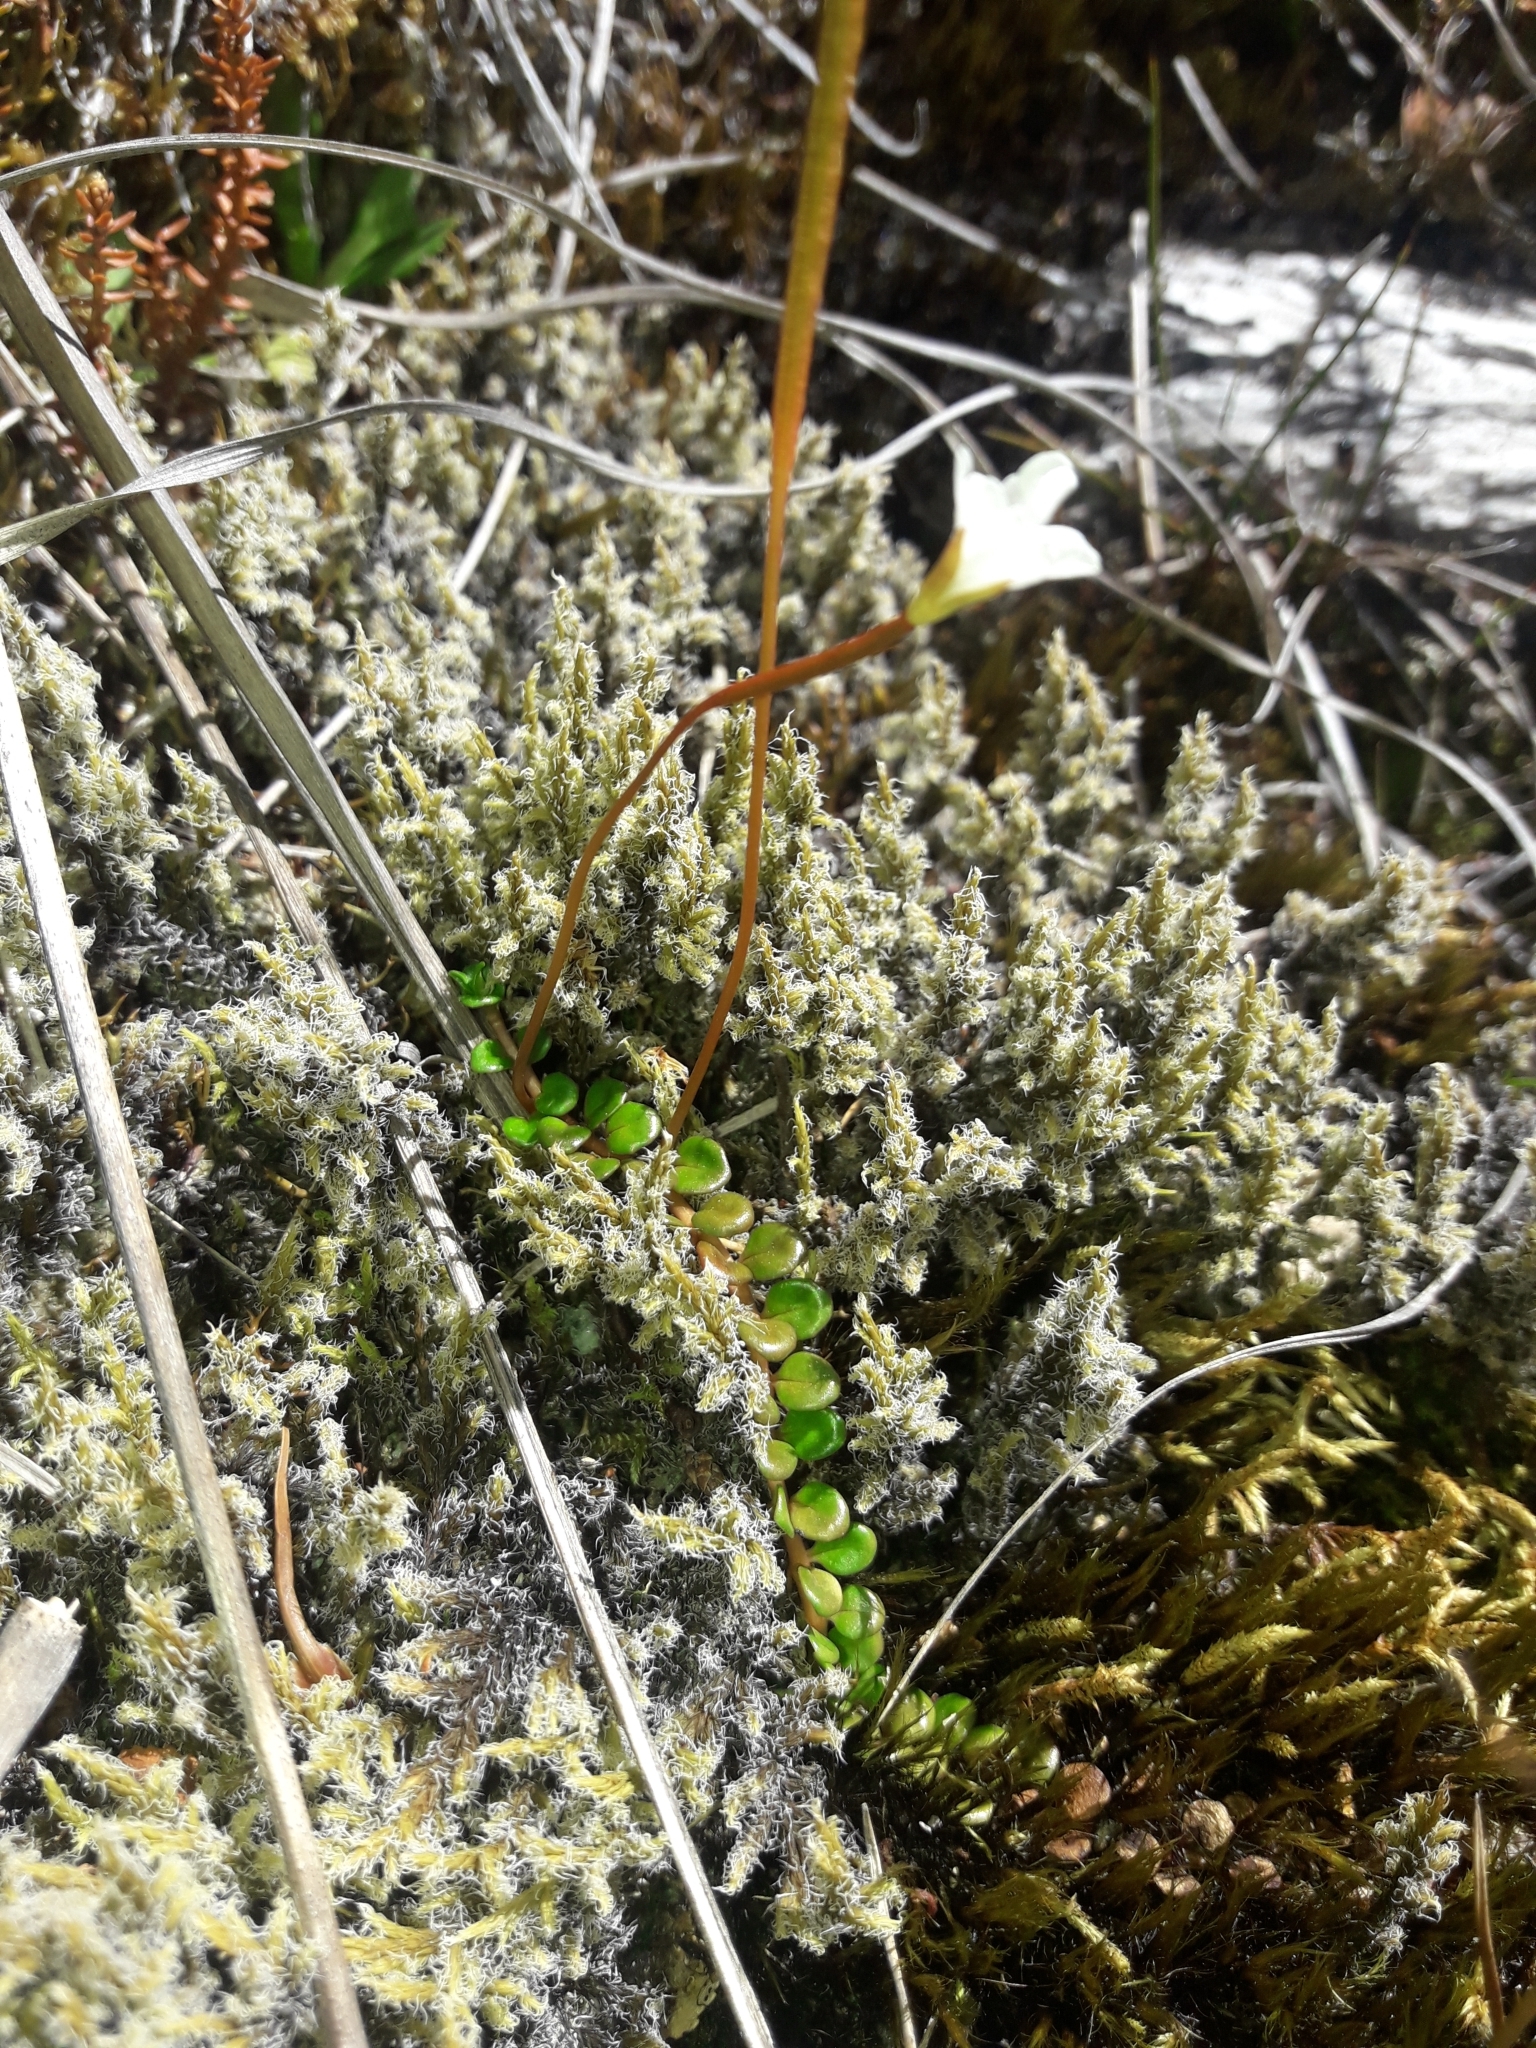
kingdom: Plantae
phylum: Tracheophyta
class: Magnoliopsida
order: Myrtales
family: Onagraceae
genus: Epilobium
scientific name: Epilobium pernitens
